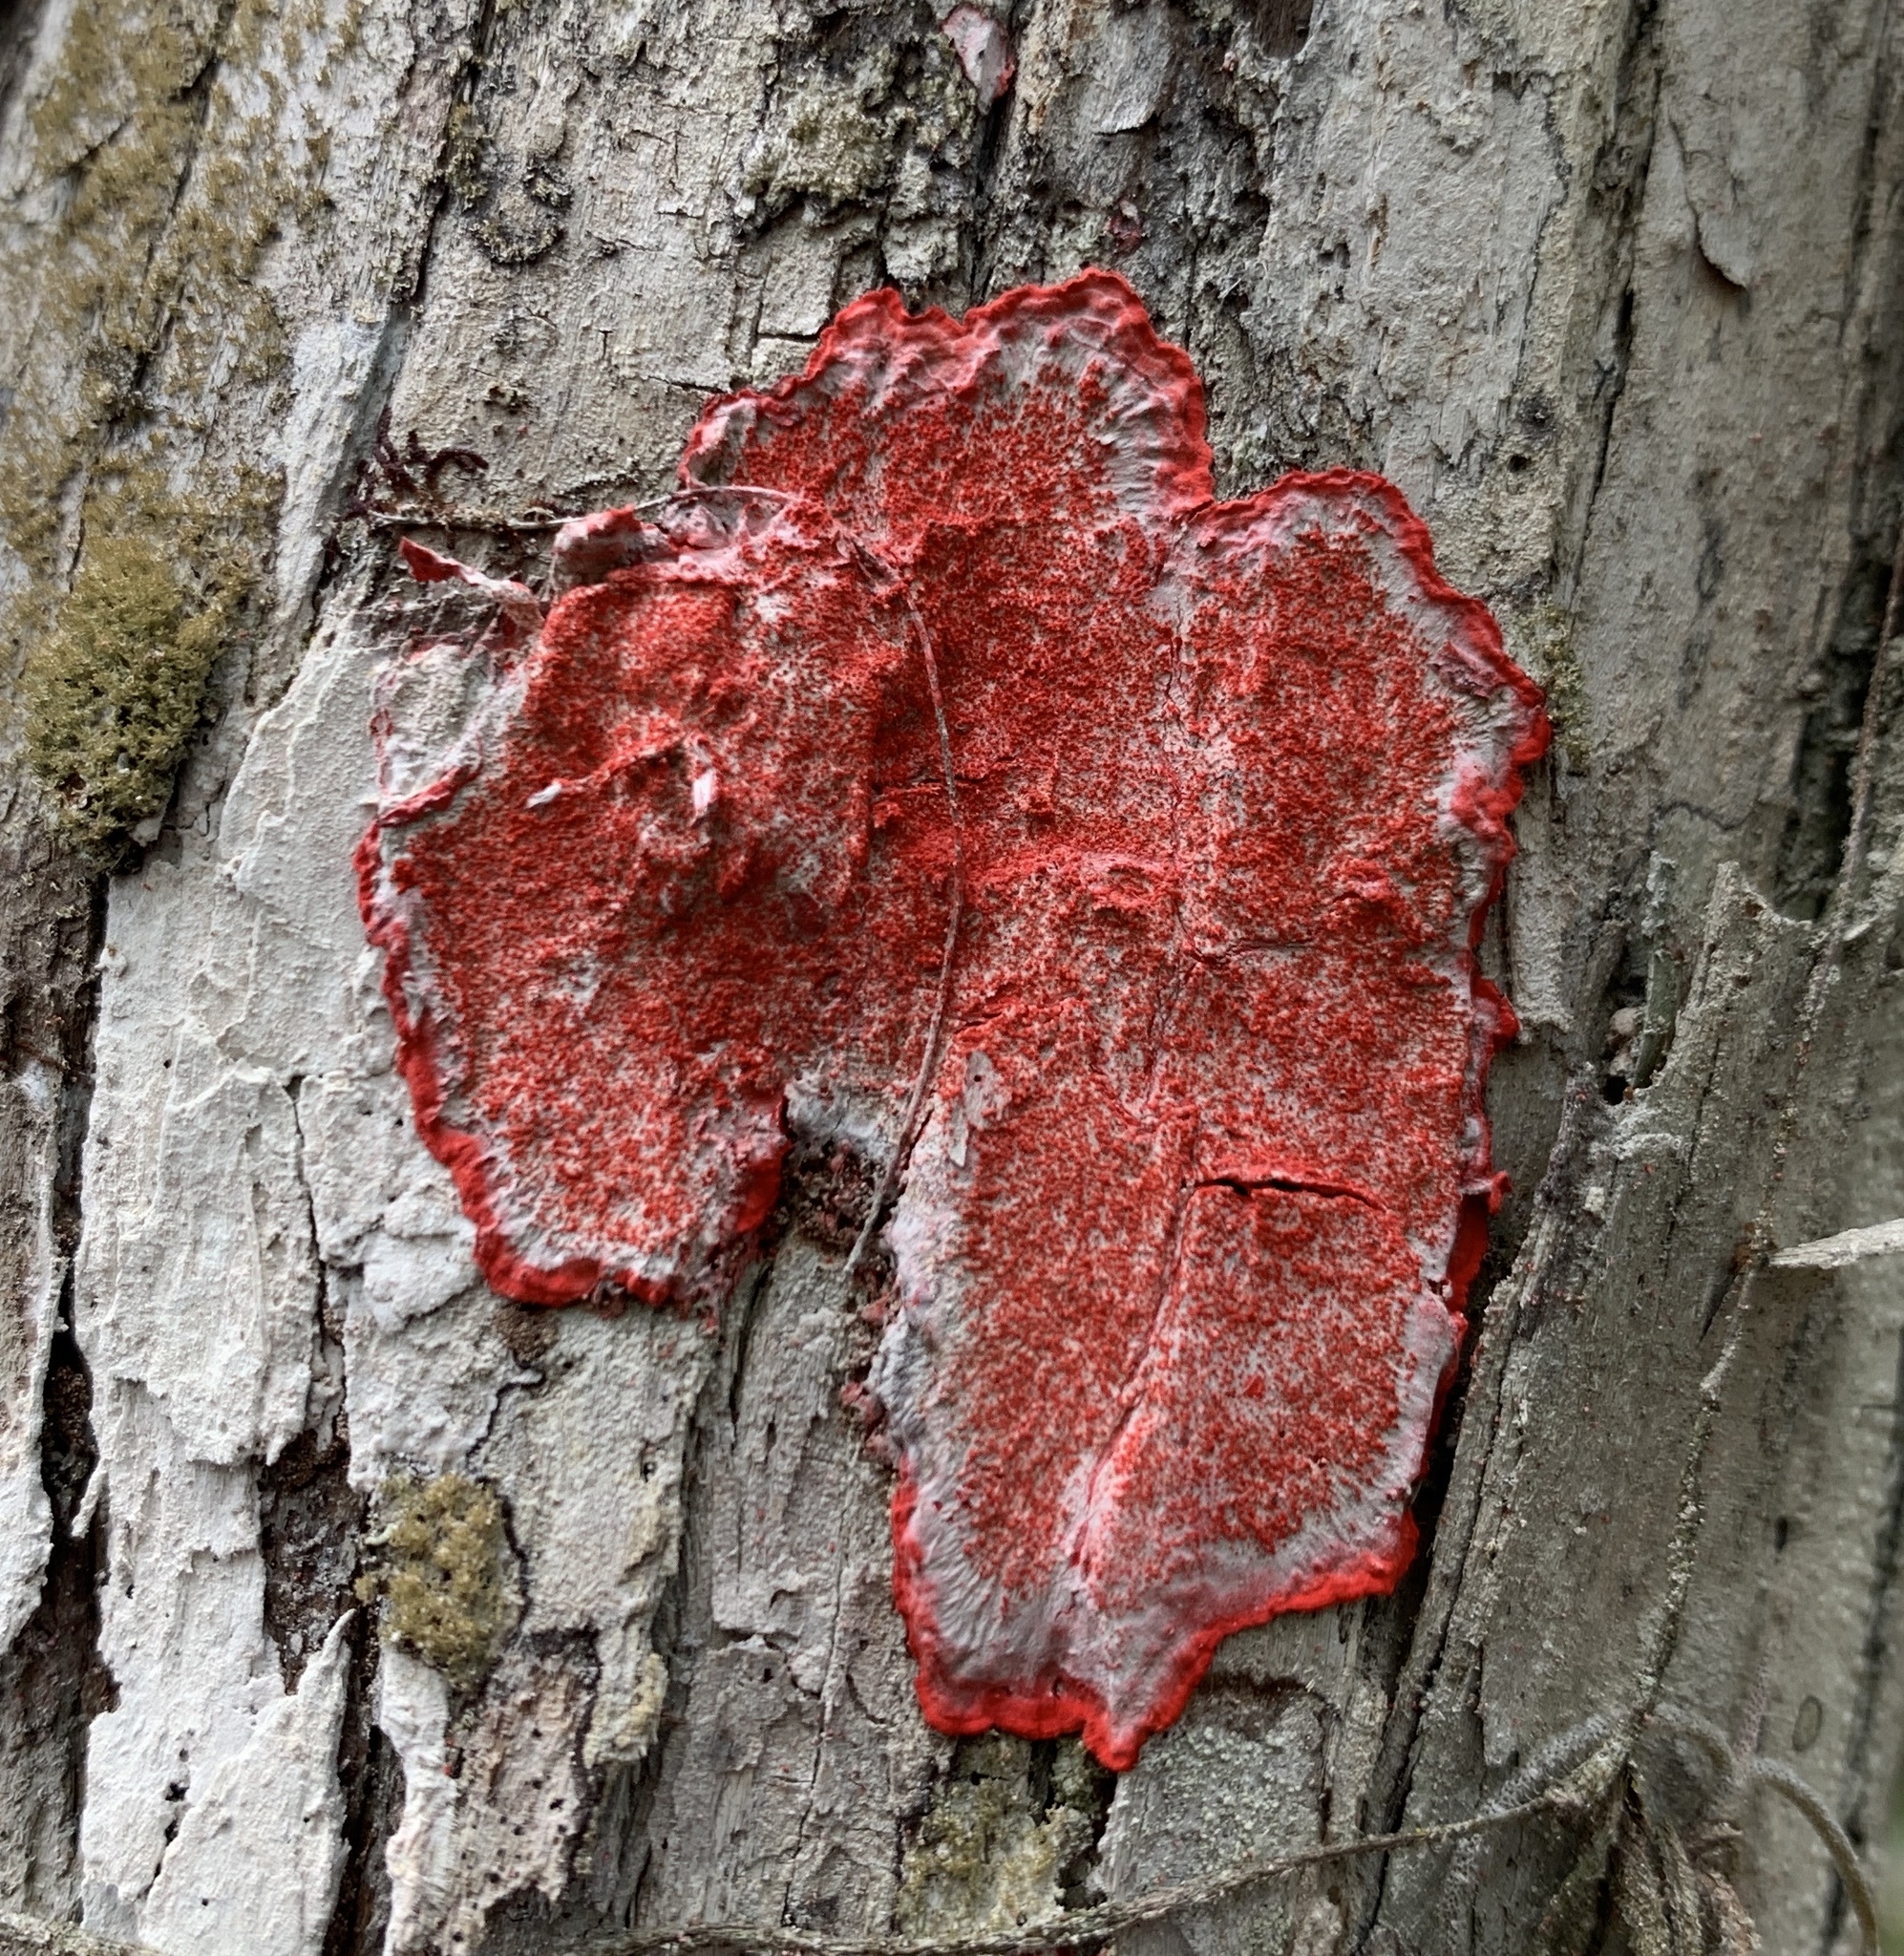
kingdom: Fungi
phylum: Ascomycota
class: Arthoniomycetes
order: Arthoniales
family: Arthoniaceae
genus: Herpothallon
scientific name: Herpothallon rubrocinctum
